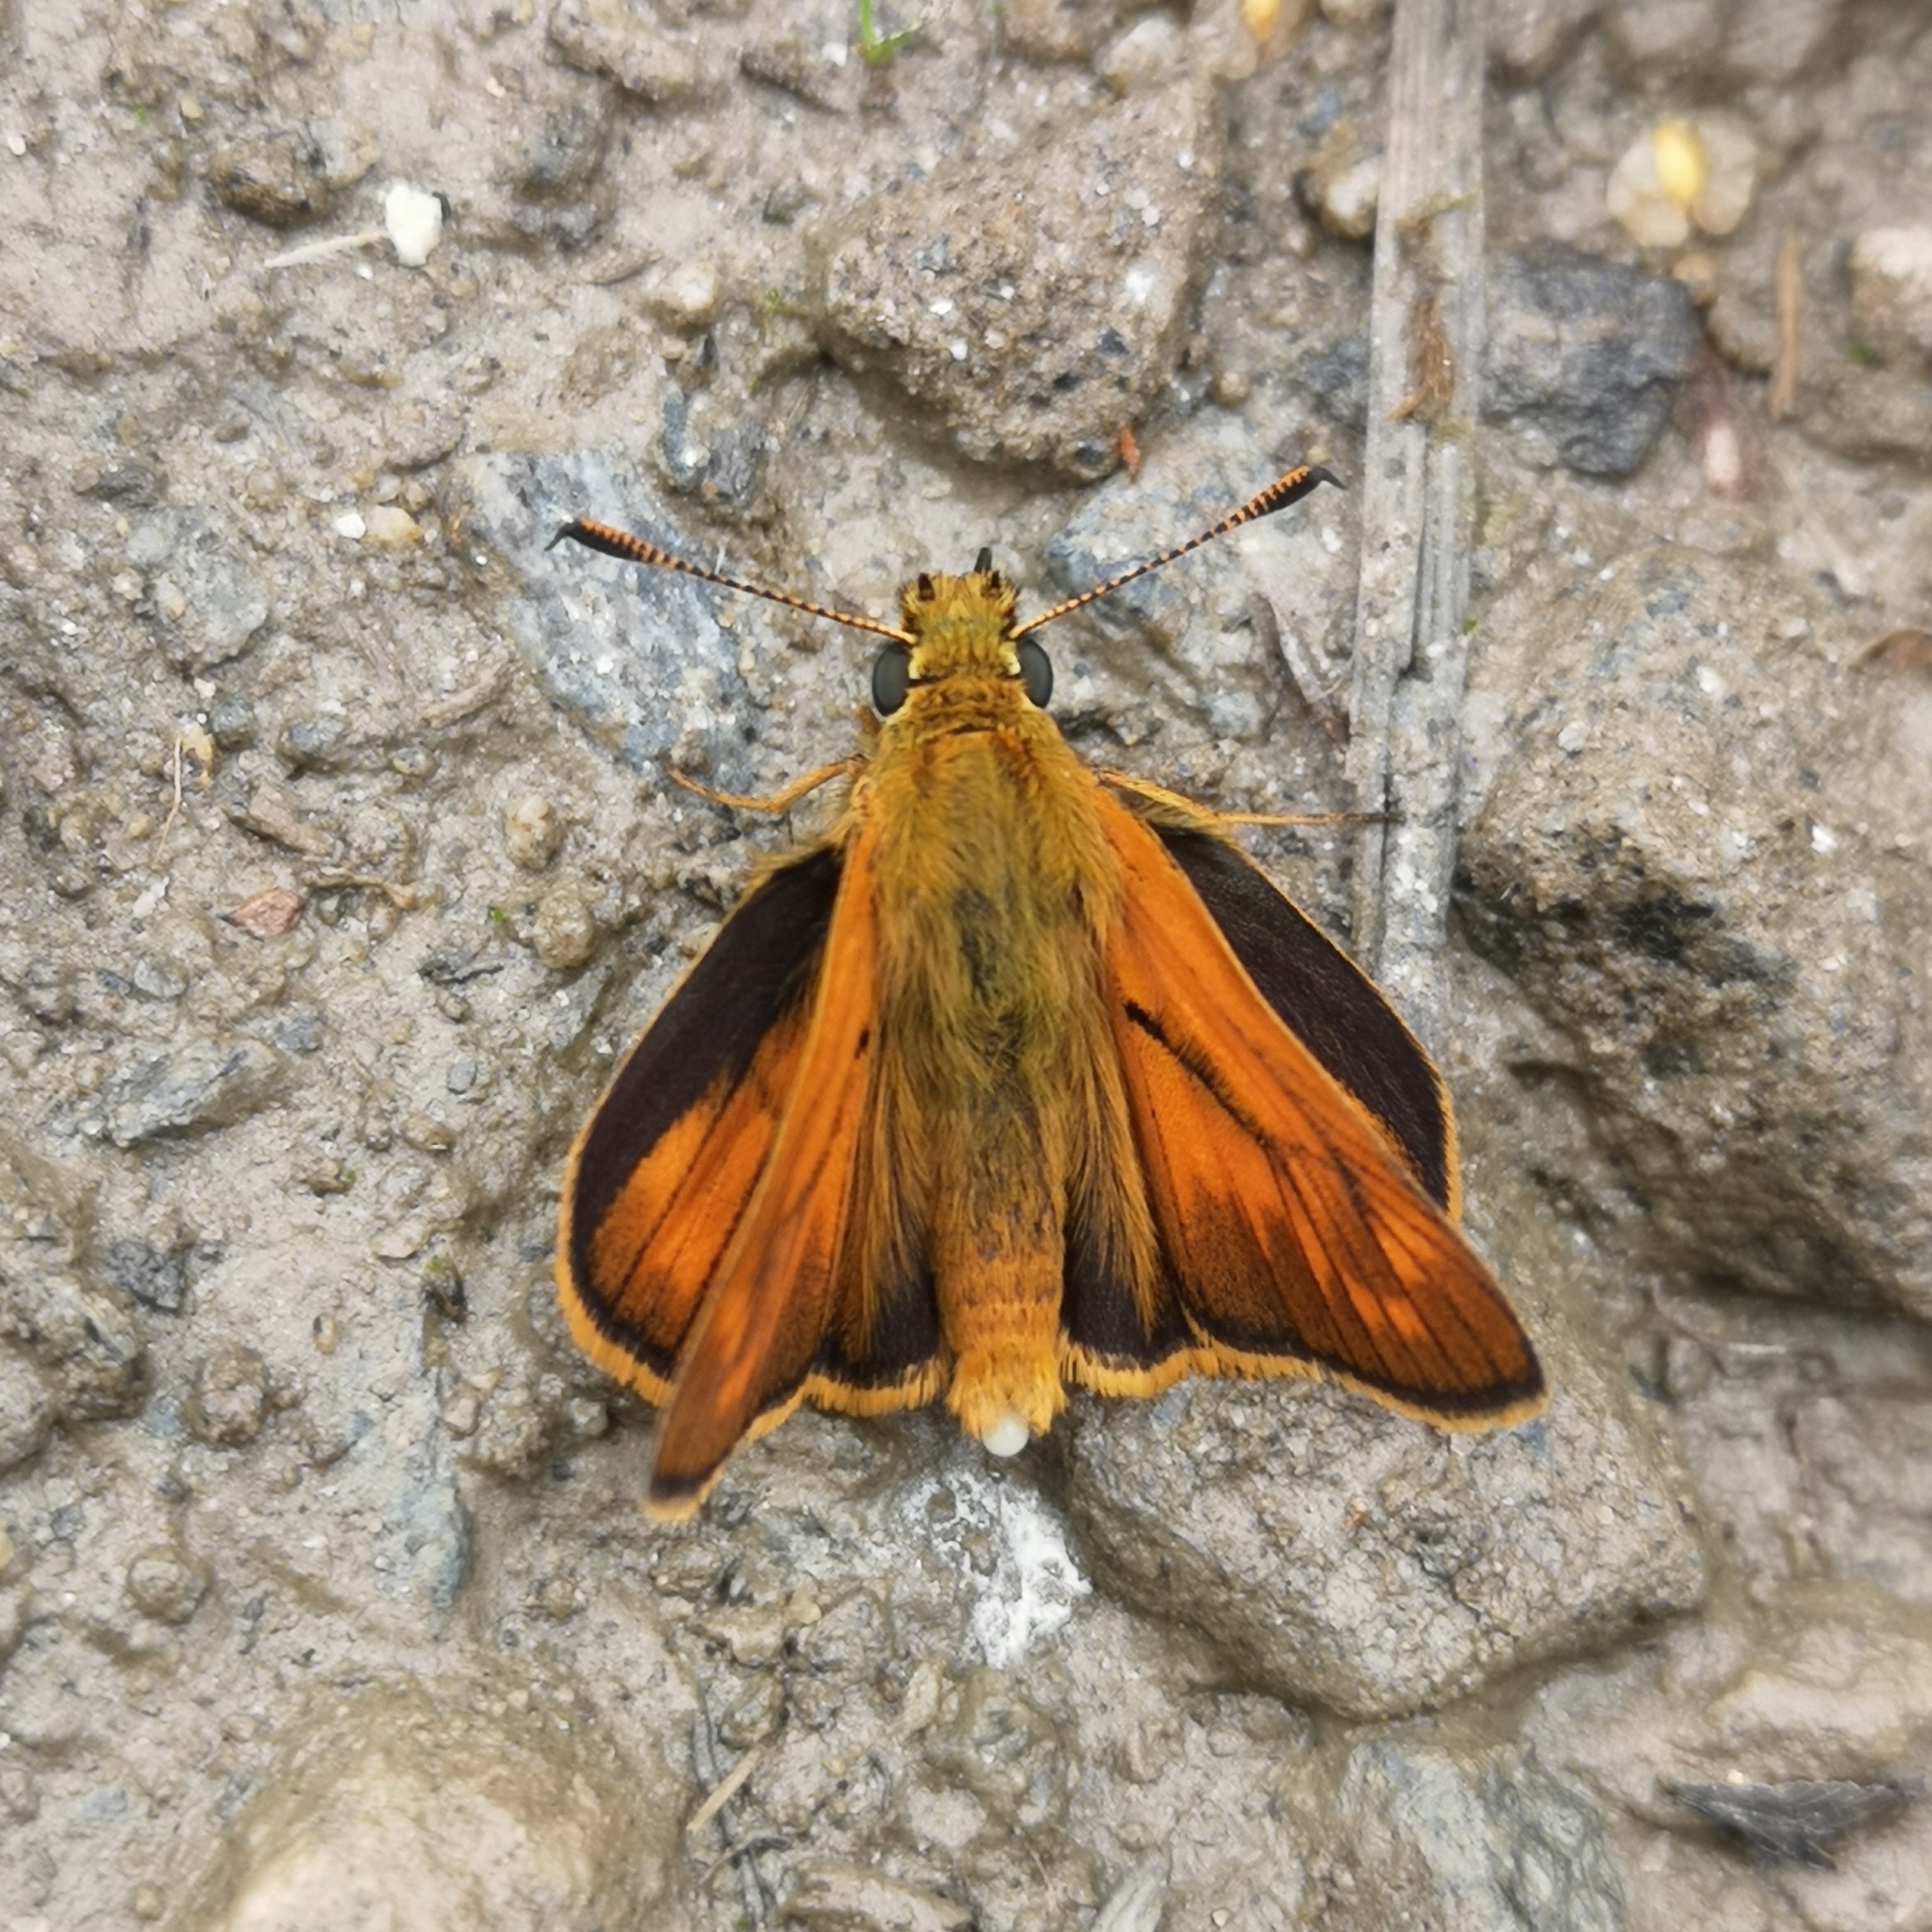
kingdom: Animalia
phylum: Arthropoda
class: Insecta
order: Lepidoptera
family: Hesperiidae
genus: Ochlodes
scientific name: Ochlodes venata
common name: Large skipper
